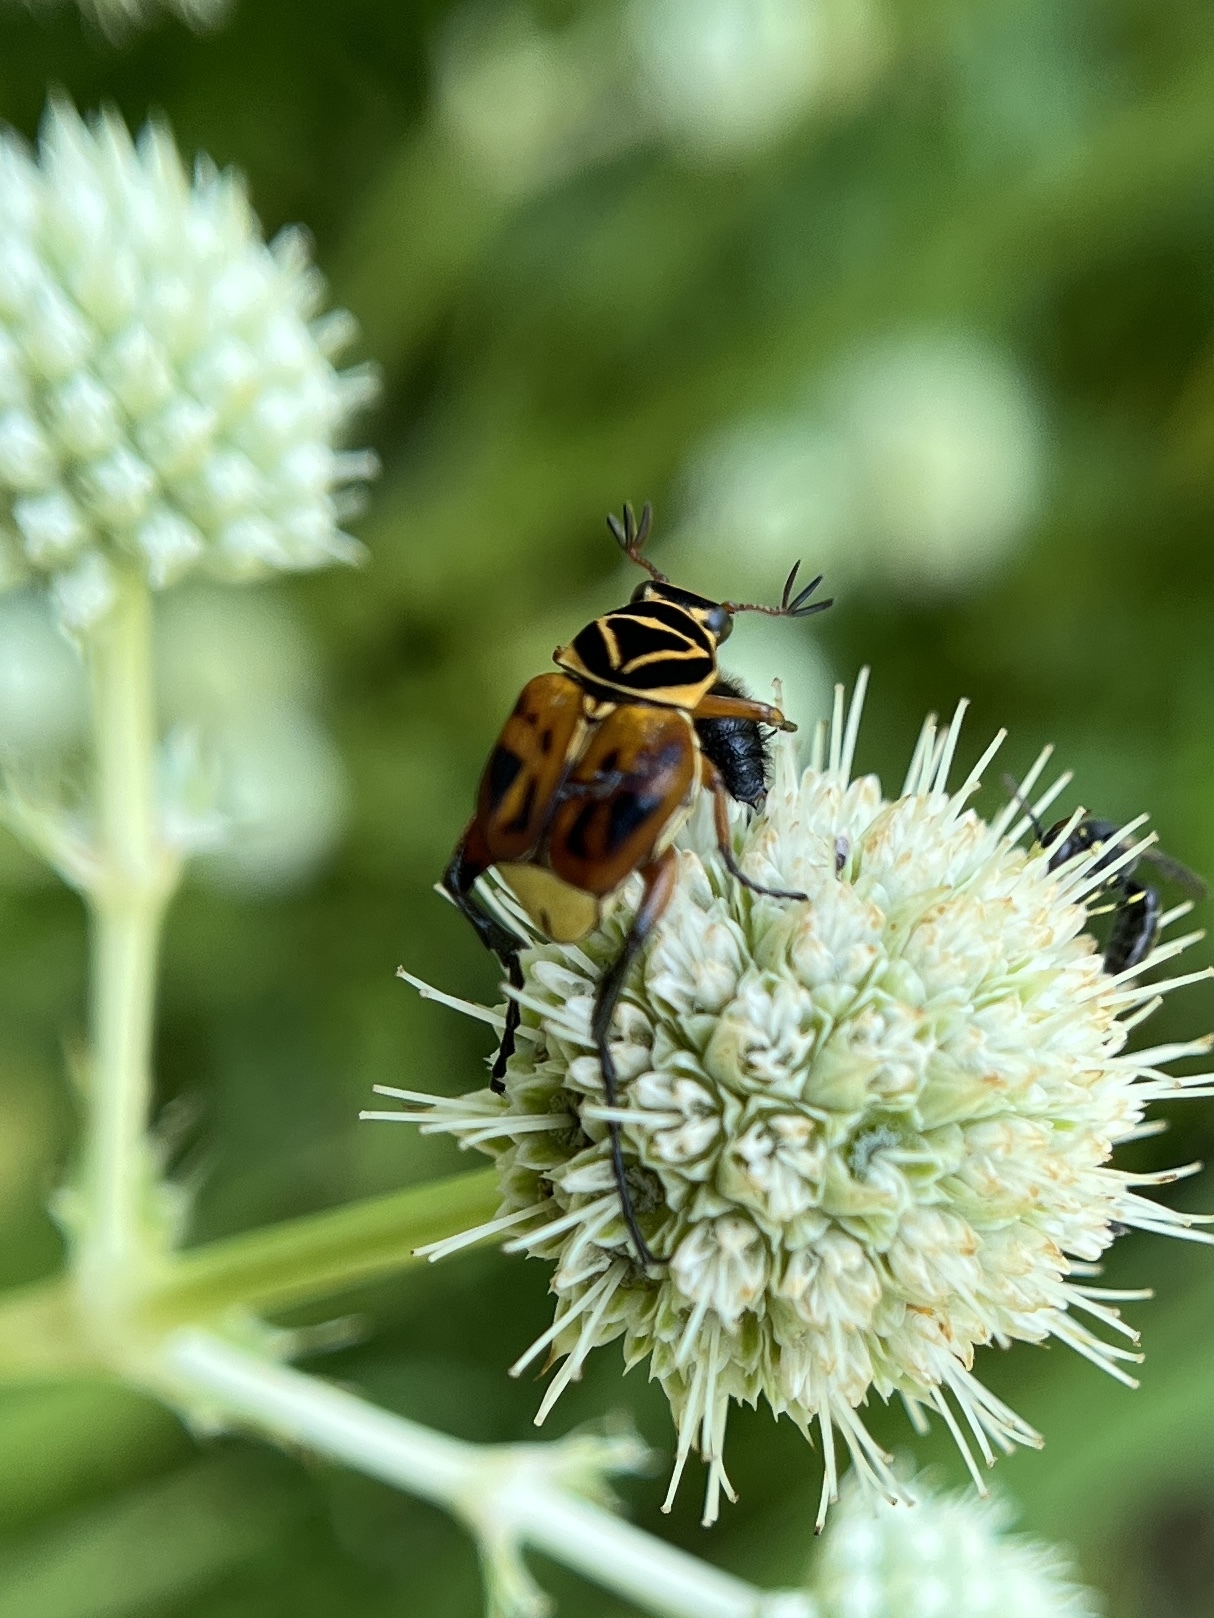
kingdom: Animalia
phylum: Arthropoda
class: Insecta
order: Coleoptera
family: Scarabaeidae
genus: Trigonopeltastes
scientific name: Trigonopeltastes delta
